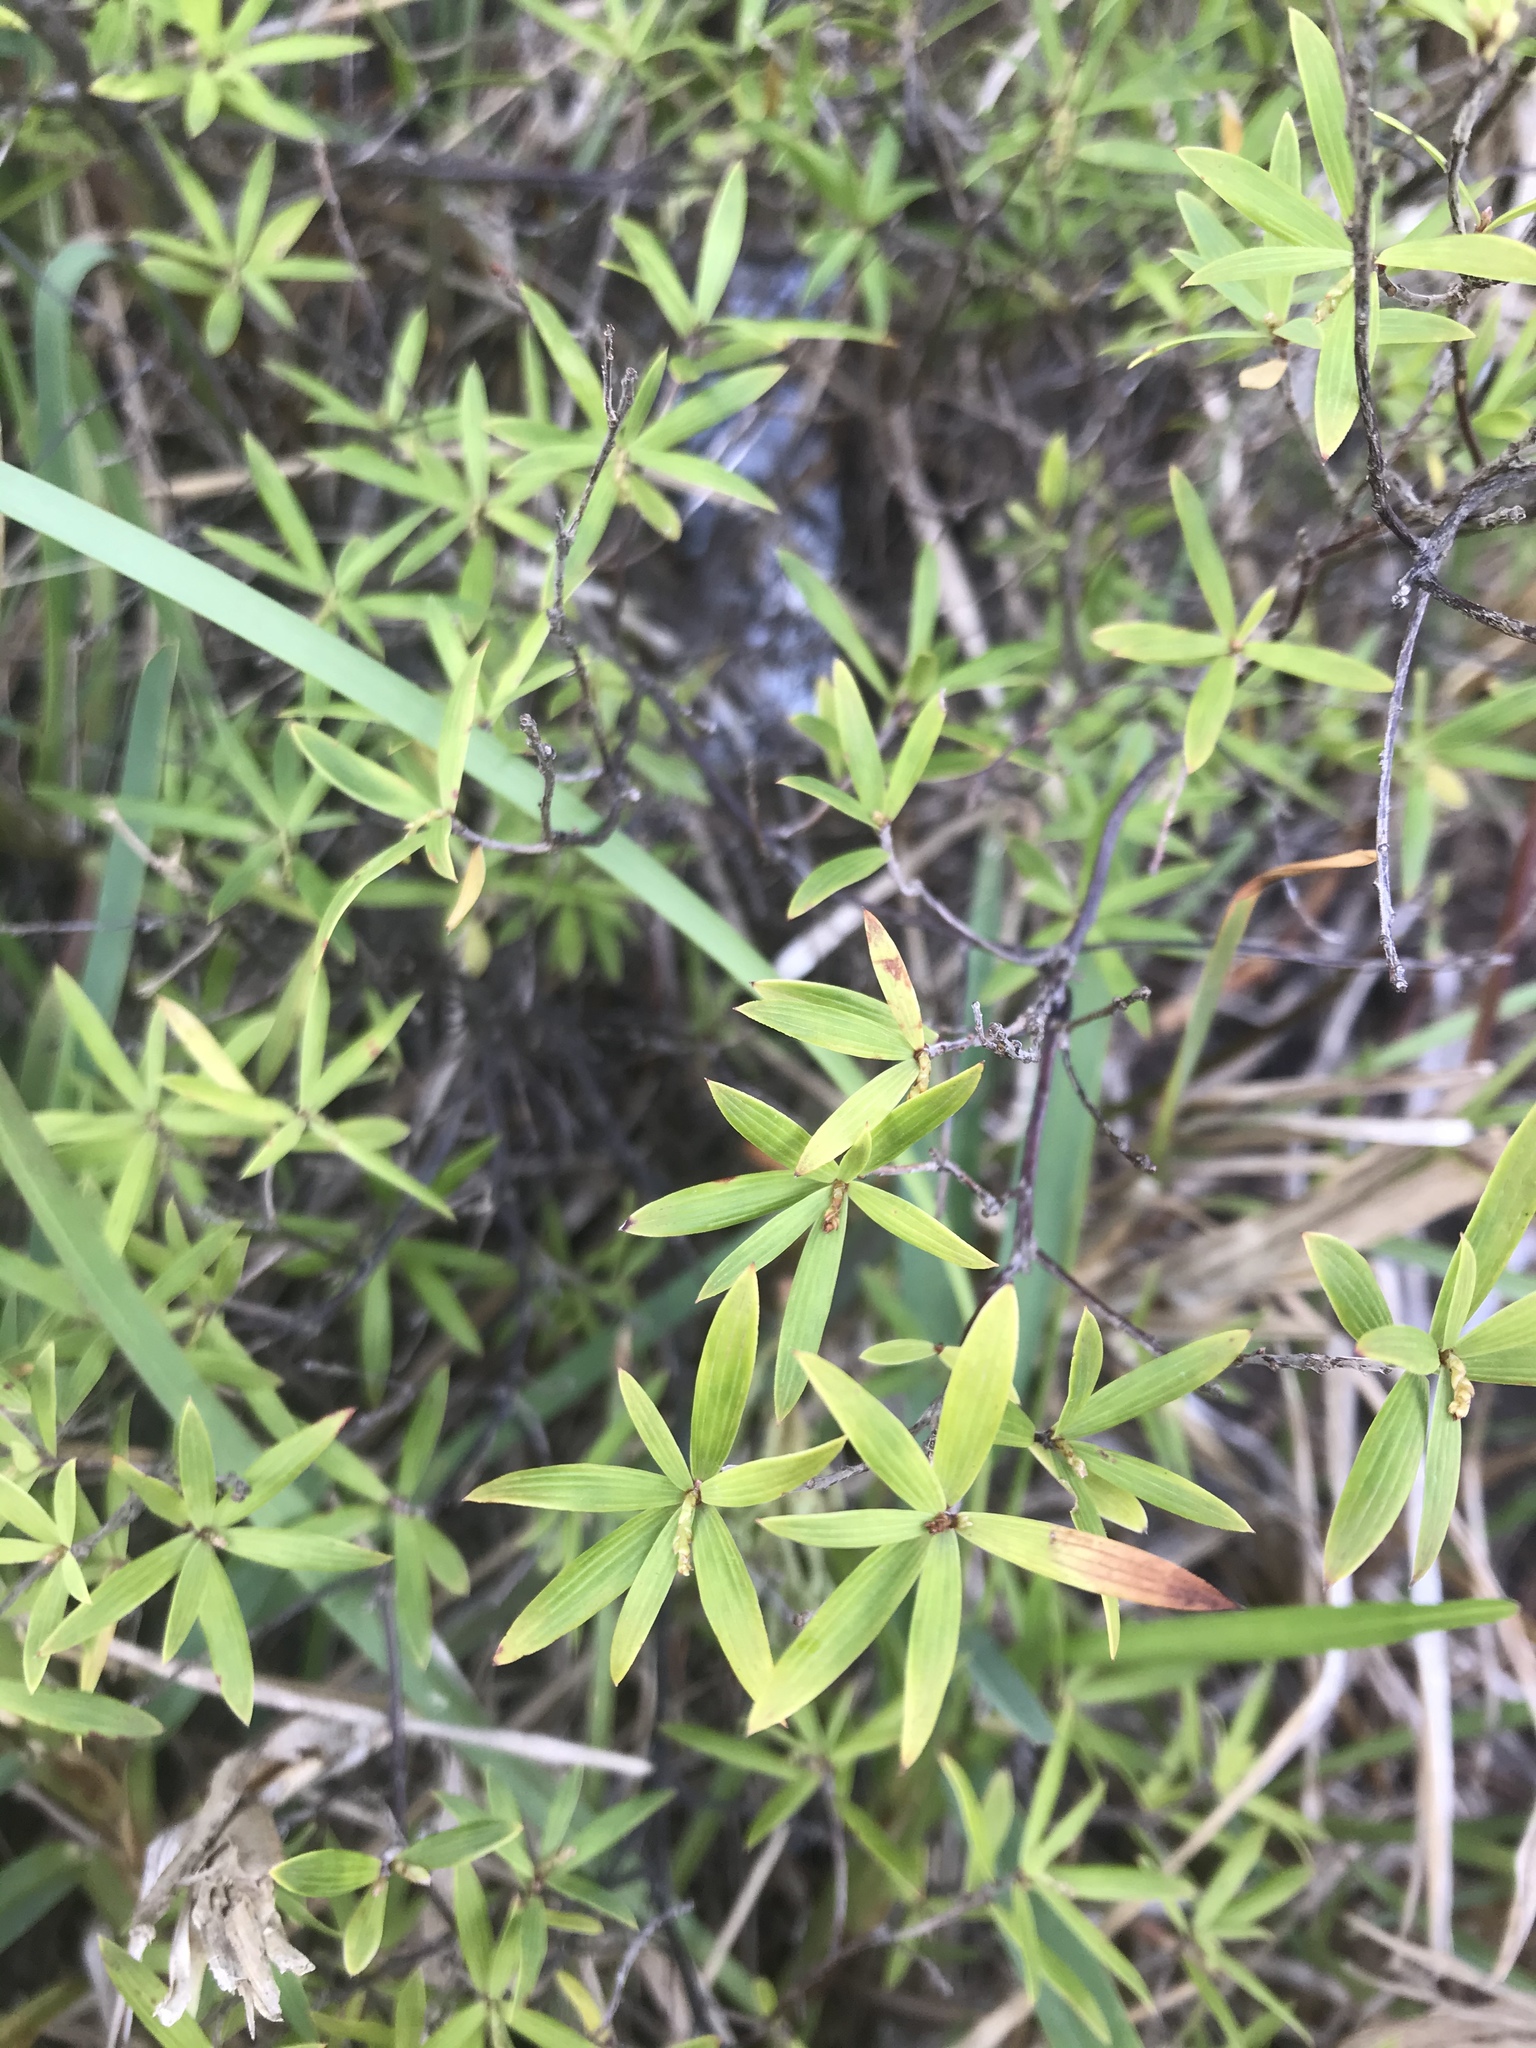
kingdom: Plantae
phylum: Tracheophyta
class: Magnoliopsida
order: Ericales
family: Ericaceae
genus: Leucopogon
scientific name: Leucopogon fasciculatus
